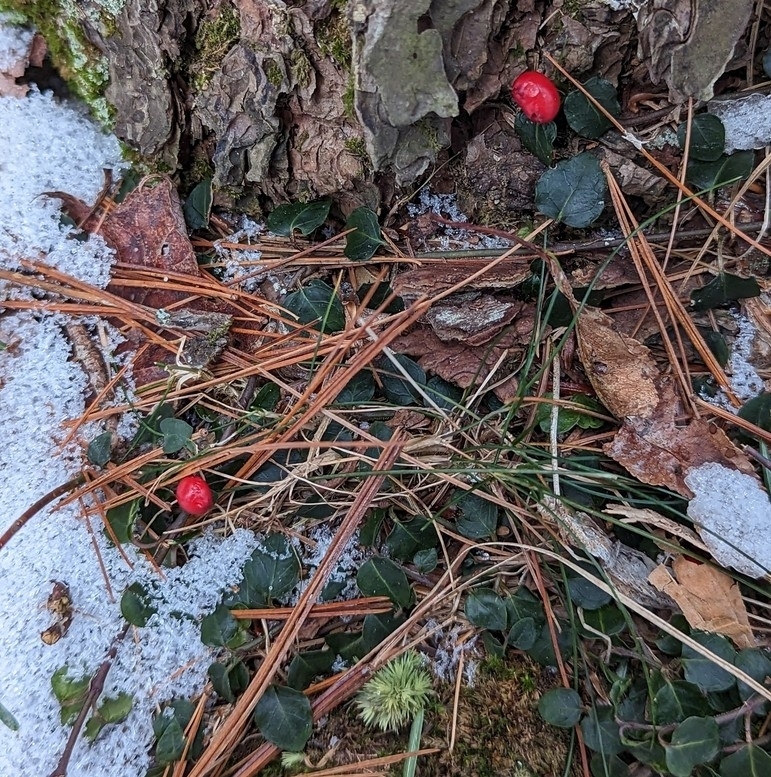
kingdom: Plantae
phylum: Tracheophyta
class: Magnoliopsida
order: Gentianales
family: Rubiaceae
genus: Mitchella
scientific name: Mitchella repens
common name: Partridge-berry
